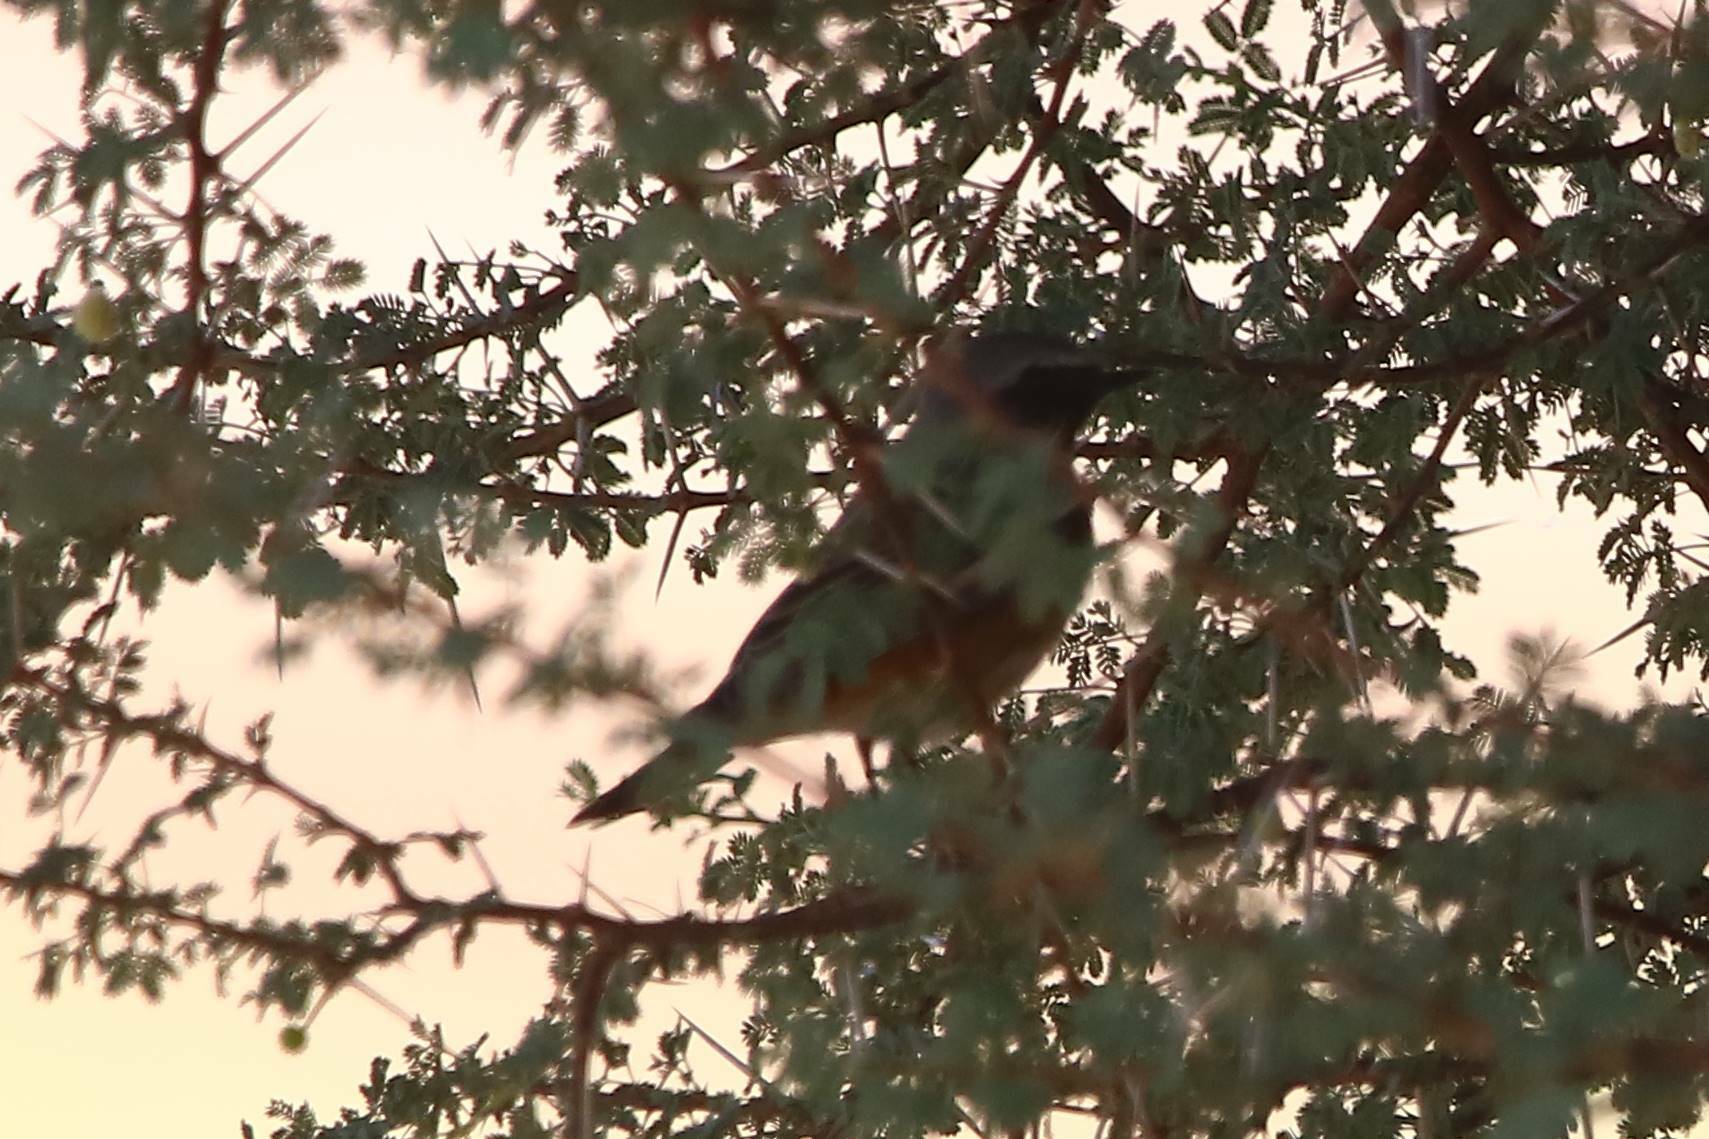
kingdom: Animalia
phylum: Chordata
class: Aves
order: Passeriformes
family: Muscicapidae
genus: Phoenicurus
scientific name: Phoenicurus phoenicurus
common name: Common redstart
